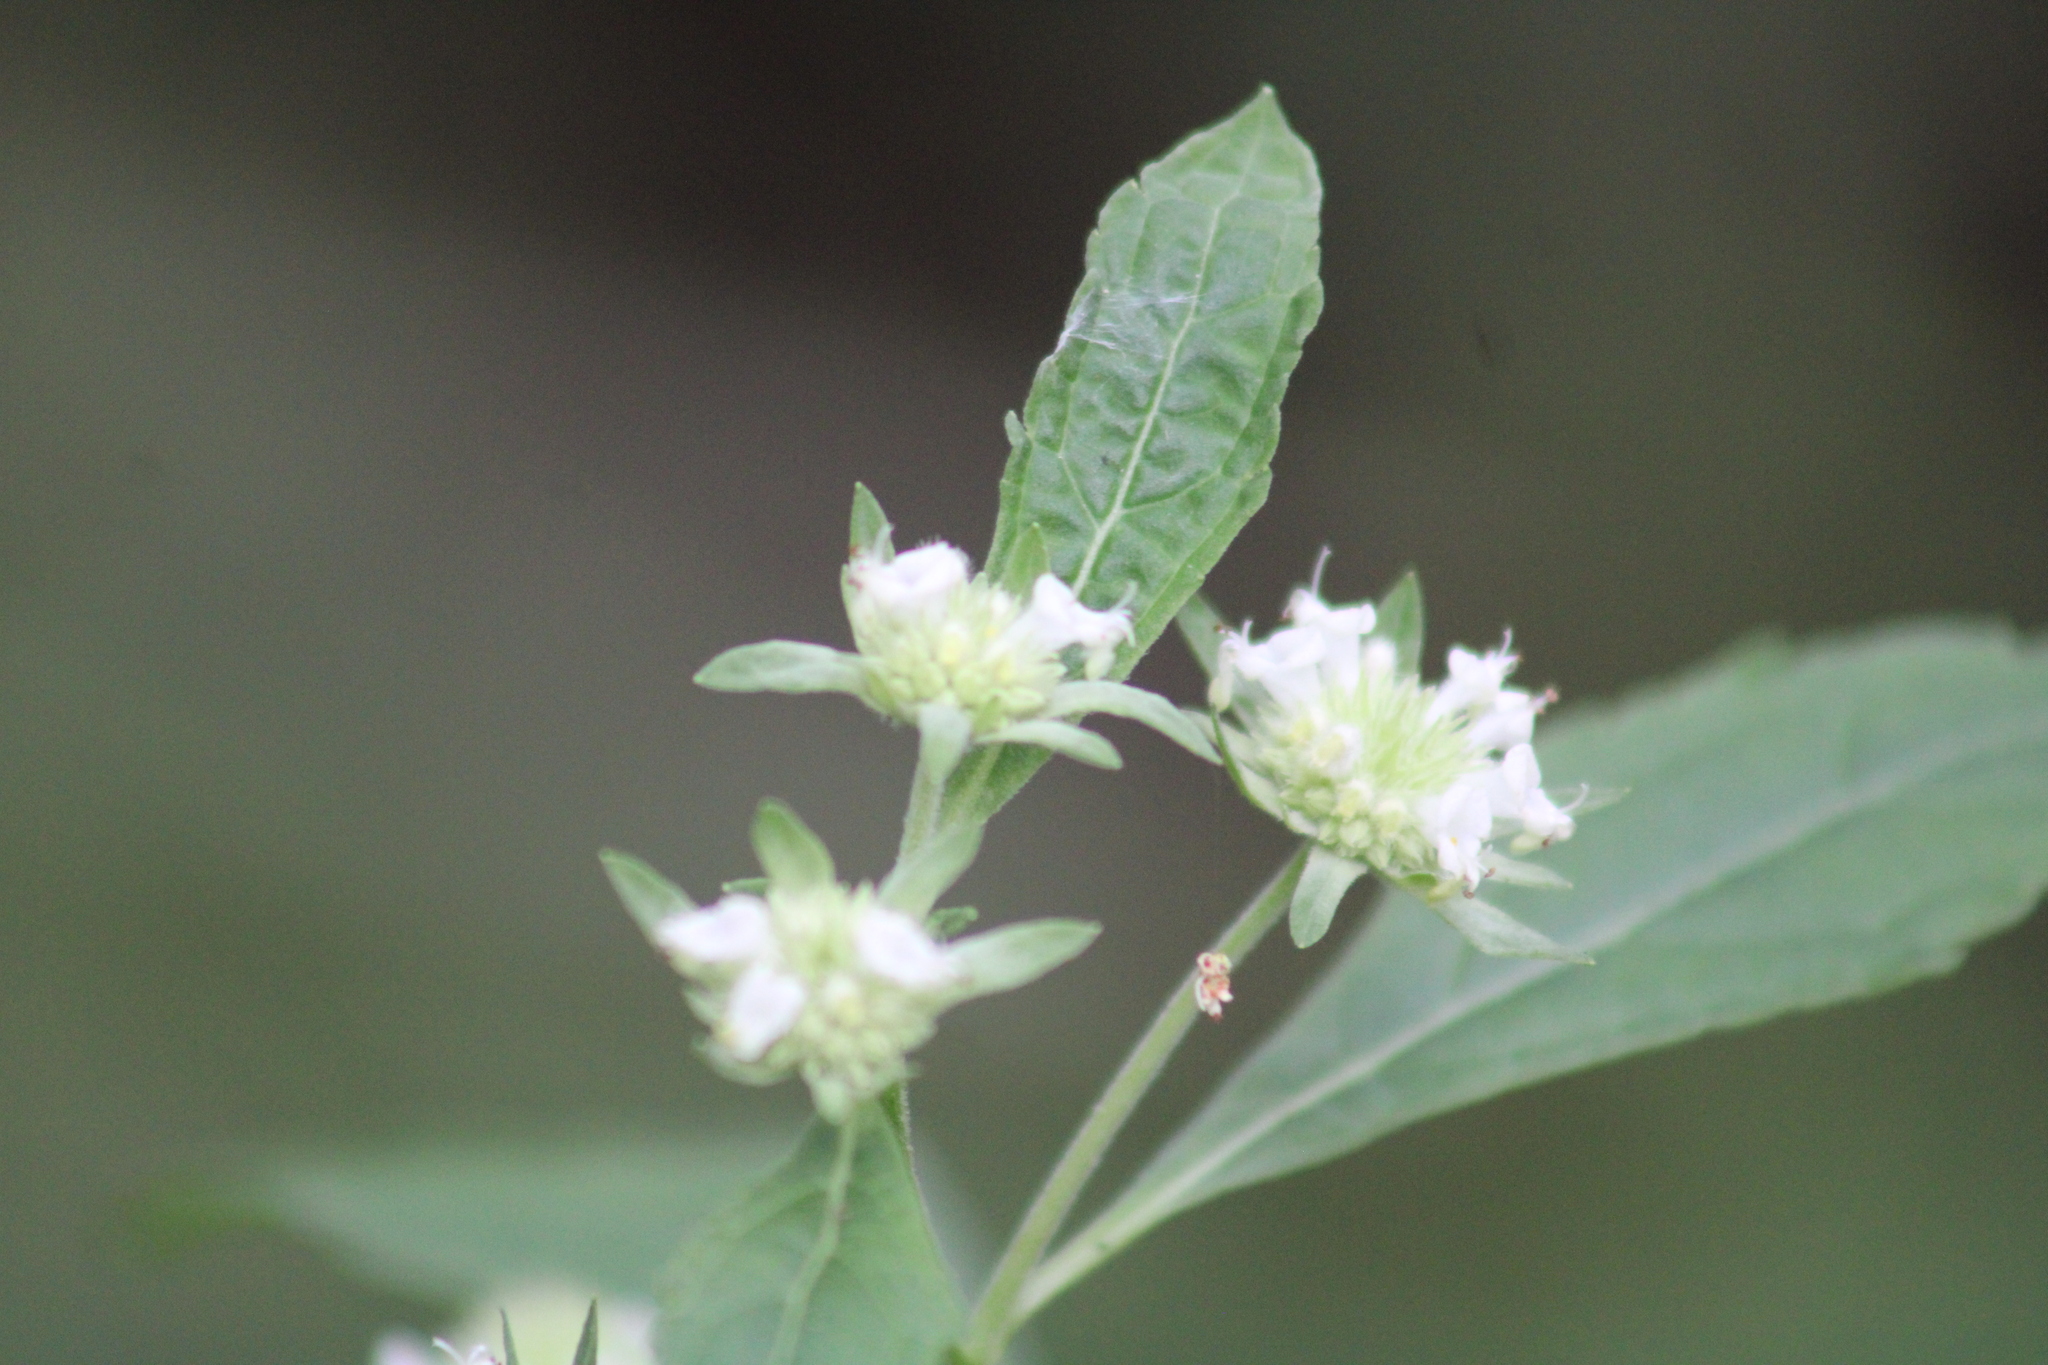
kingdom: Plantae
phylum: Tracheophyta
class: Magnoliopsida
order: Lamiales
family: Lamiaceae
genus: Hyptis
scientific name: Hyptis alata
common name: Cluster bush-mint
